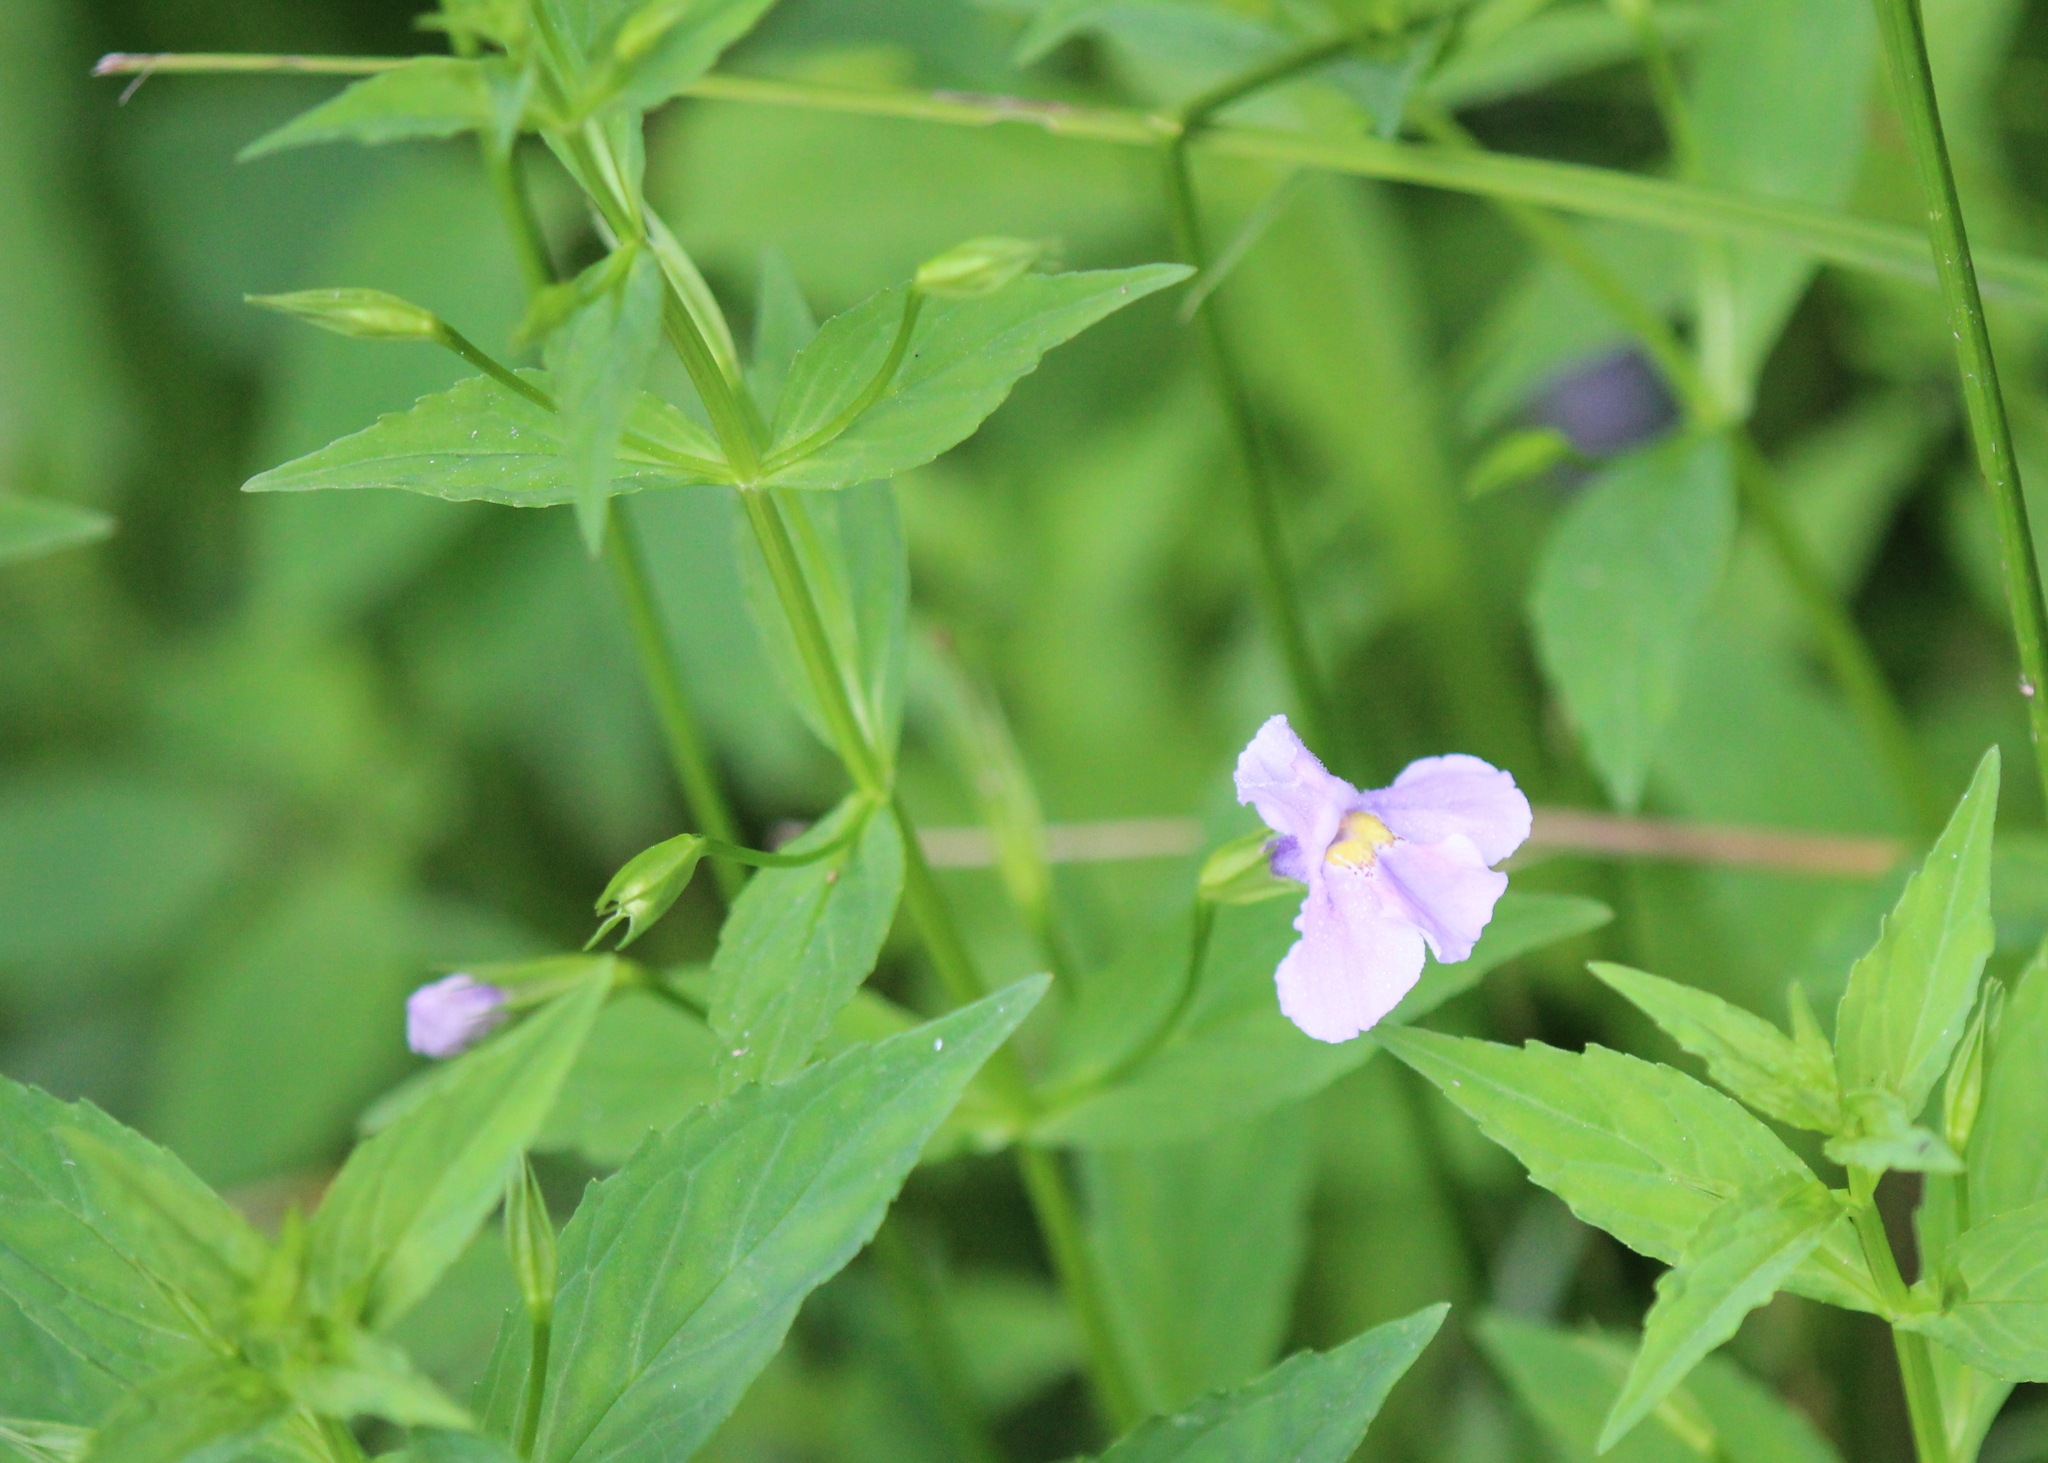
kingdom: Plantae
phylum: Tracheophyta
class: Magnoliopsida
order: Lamiales
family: Phrymaceae
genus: Mimulus
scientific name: Mimulus ringens
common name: Allegheny monkeyflower
